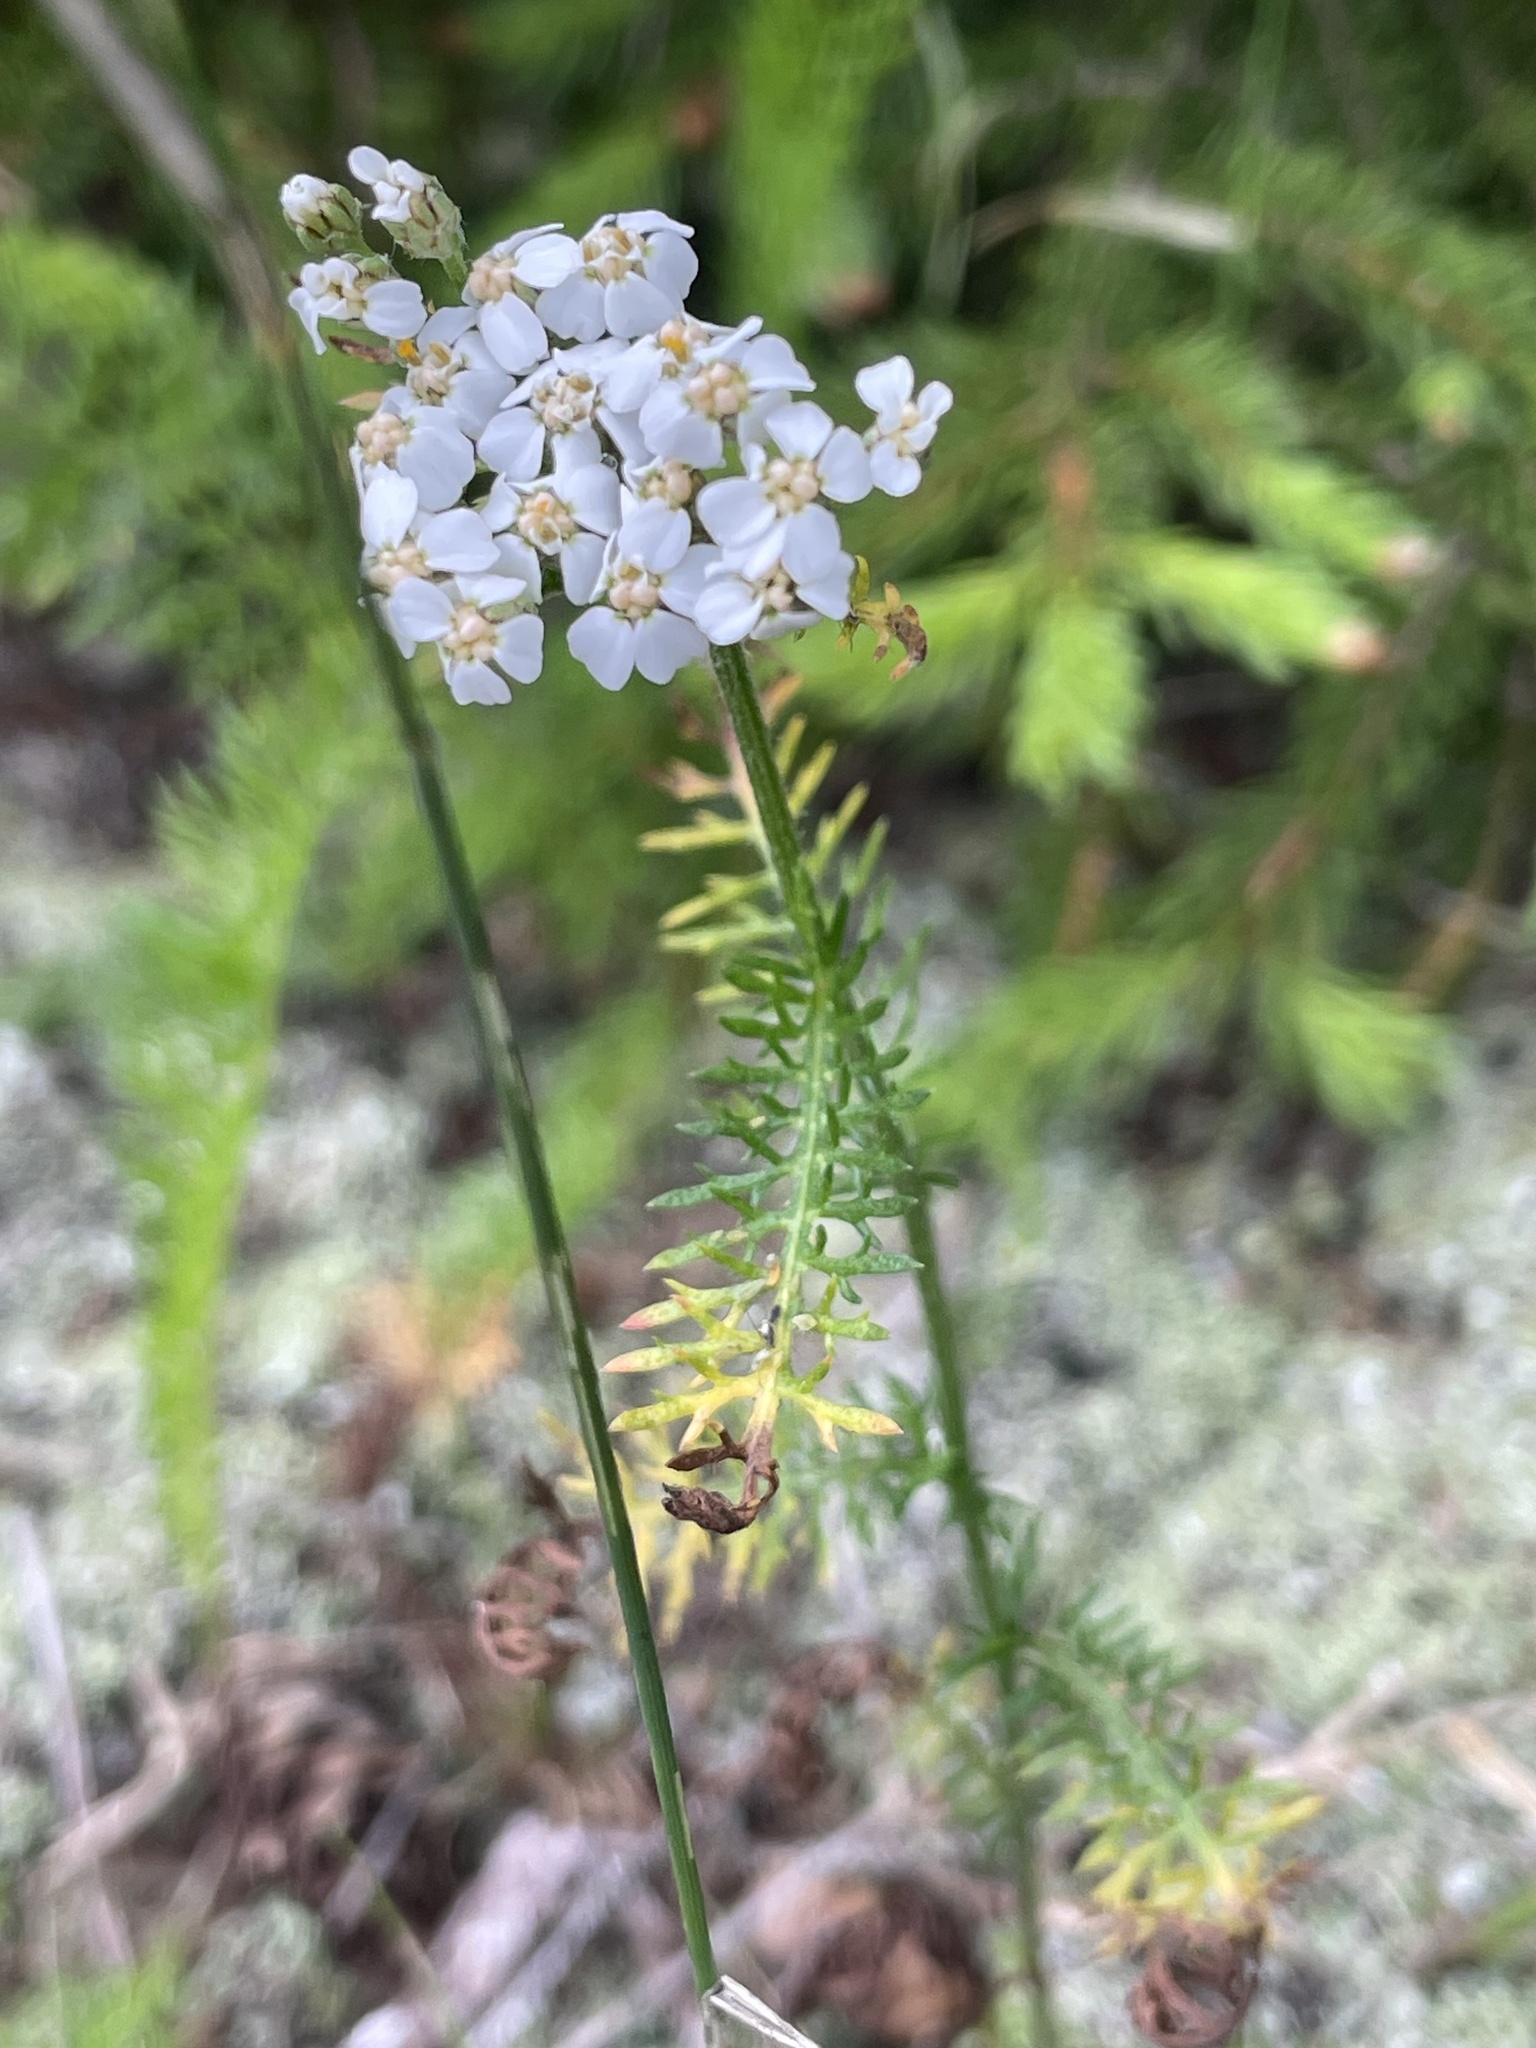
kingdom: Plantae
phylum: Tracheophyta
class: Magnoliopsida
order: Asterales
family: Asteraceae
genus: Achillea
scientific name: Achillea millefolium
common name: Yarrow
